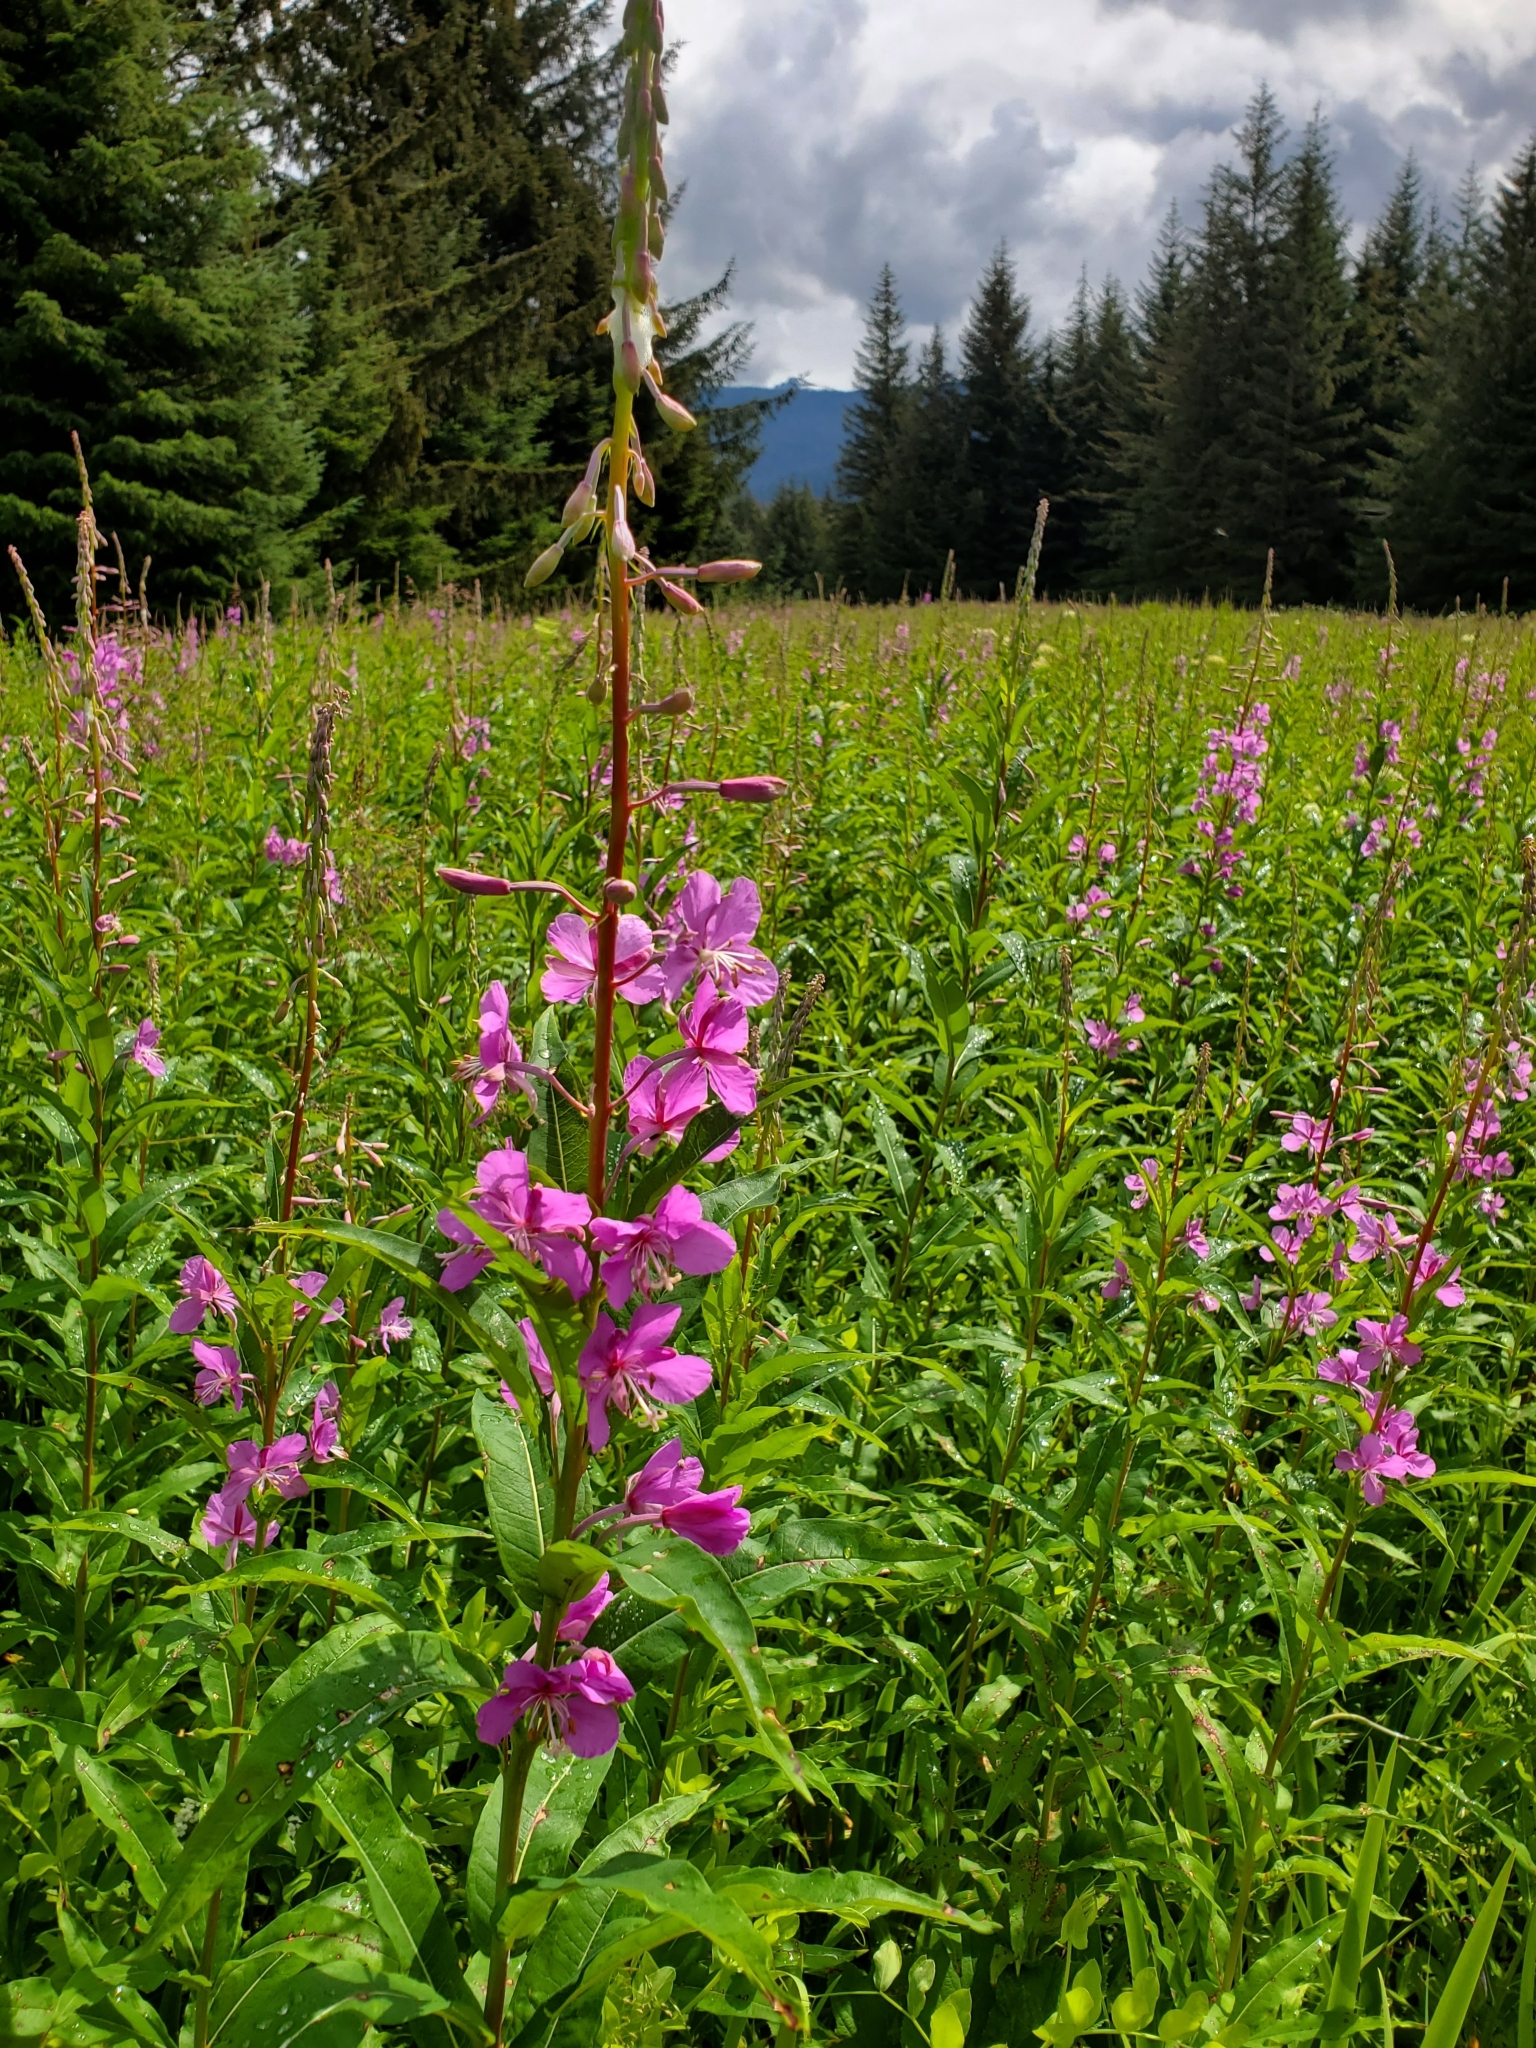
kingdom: Plantae
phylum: Tracheophyta
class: Magnoliopsida
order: Myrtales
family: Onagraceae
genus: Chamaenerion
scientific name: Chamaenerion angustifolium
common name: Fireweed
